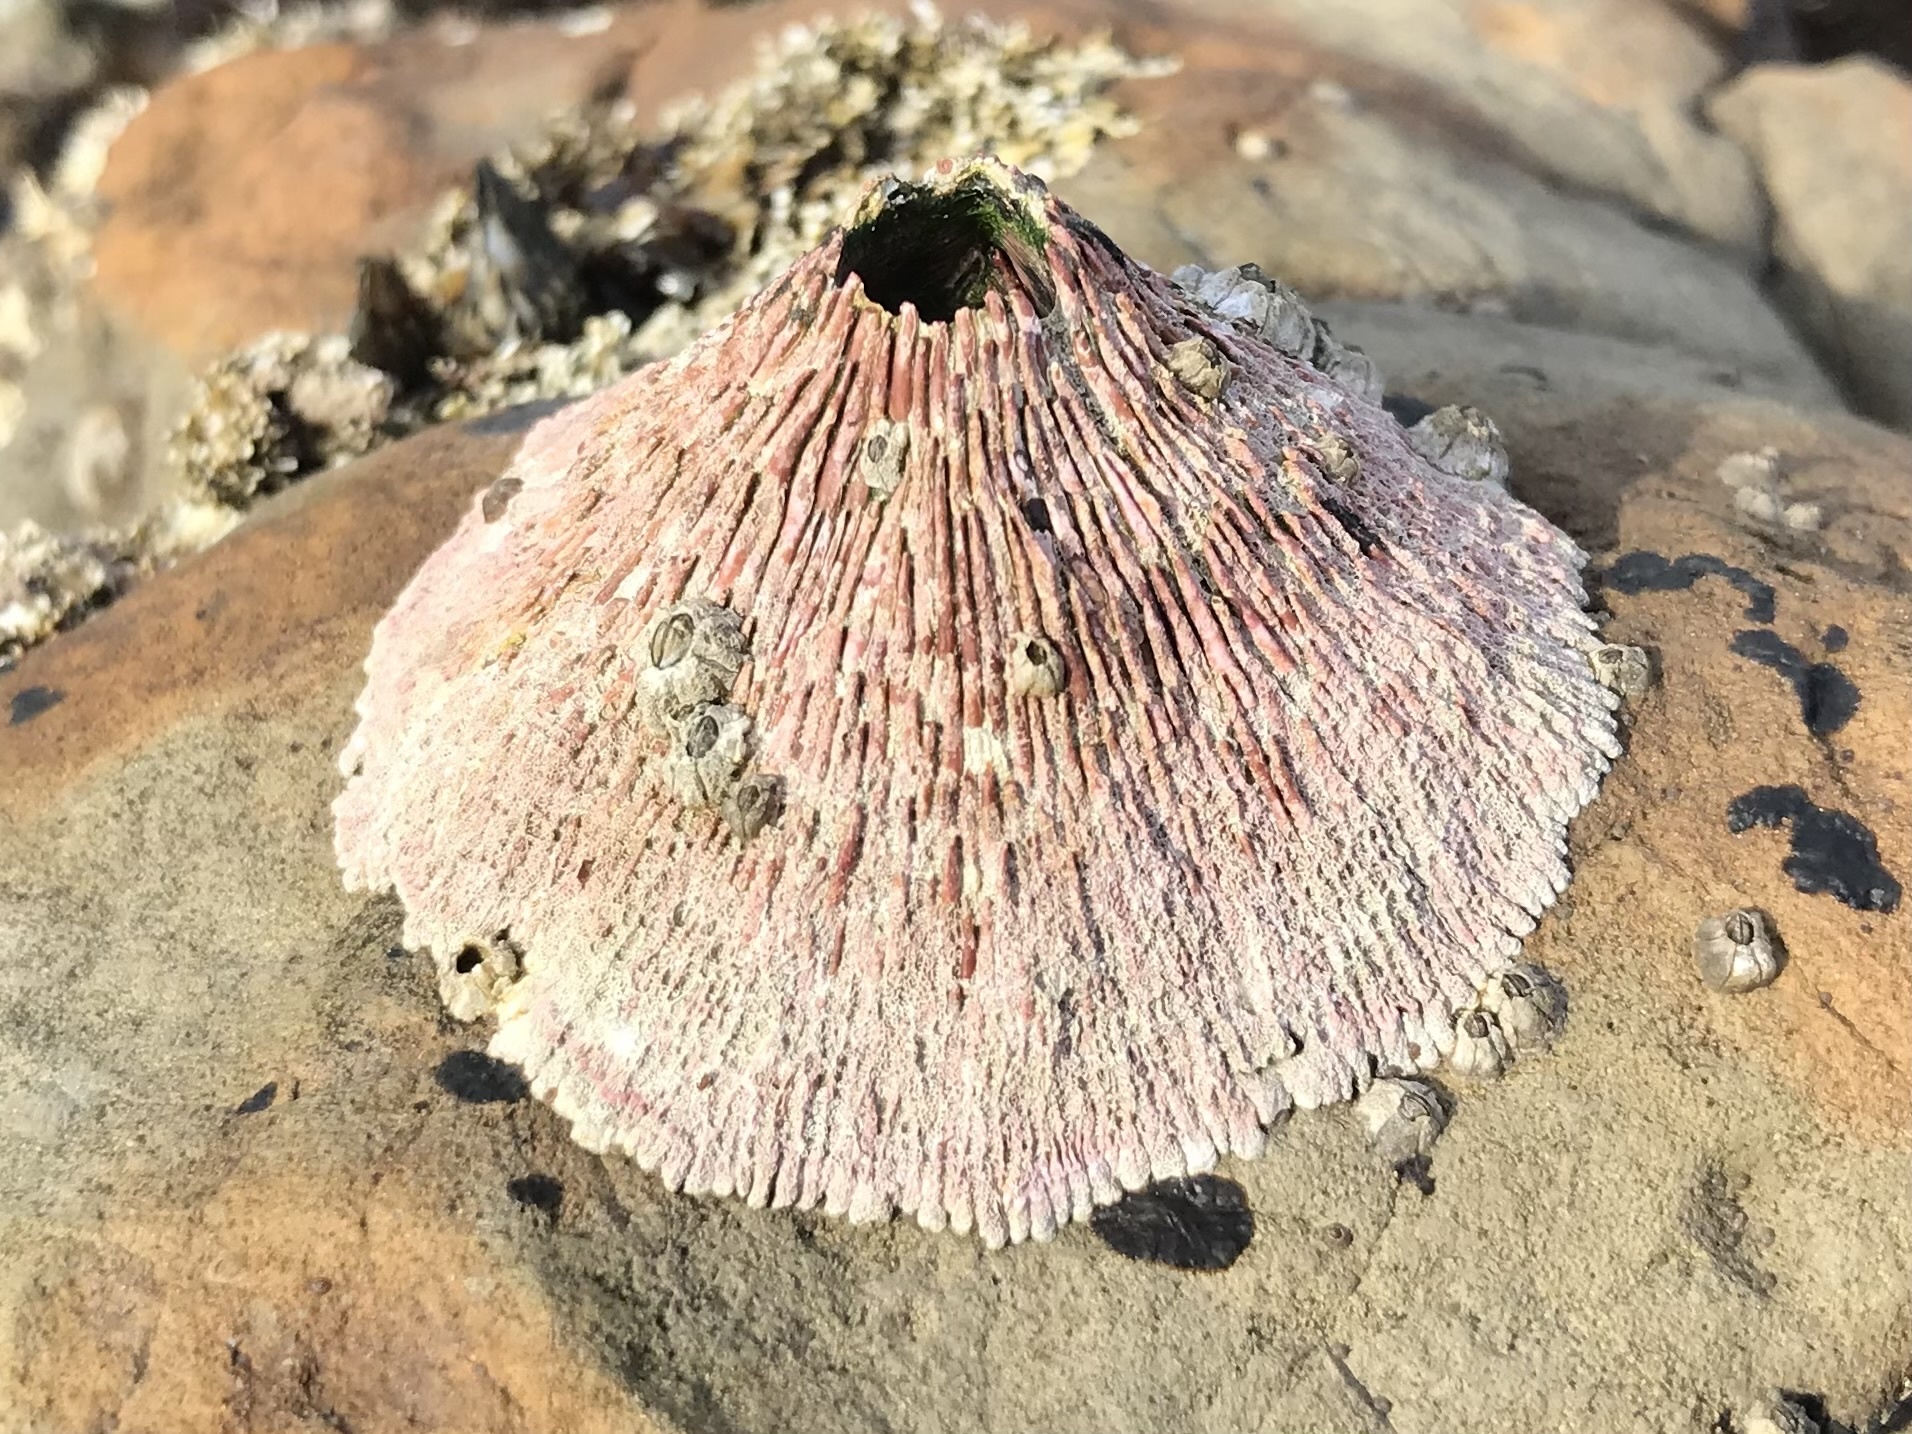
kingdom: Animalia
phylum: Arthropoda
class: Maxillopoda
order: Sessilia
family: Tetraclitidae
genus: Tetraclita
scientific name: Tetraclita rubescens
